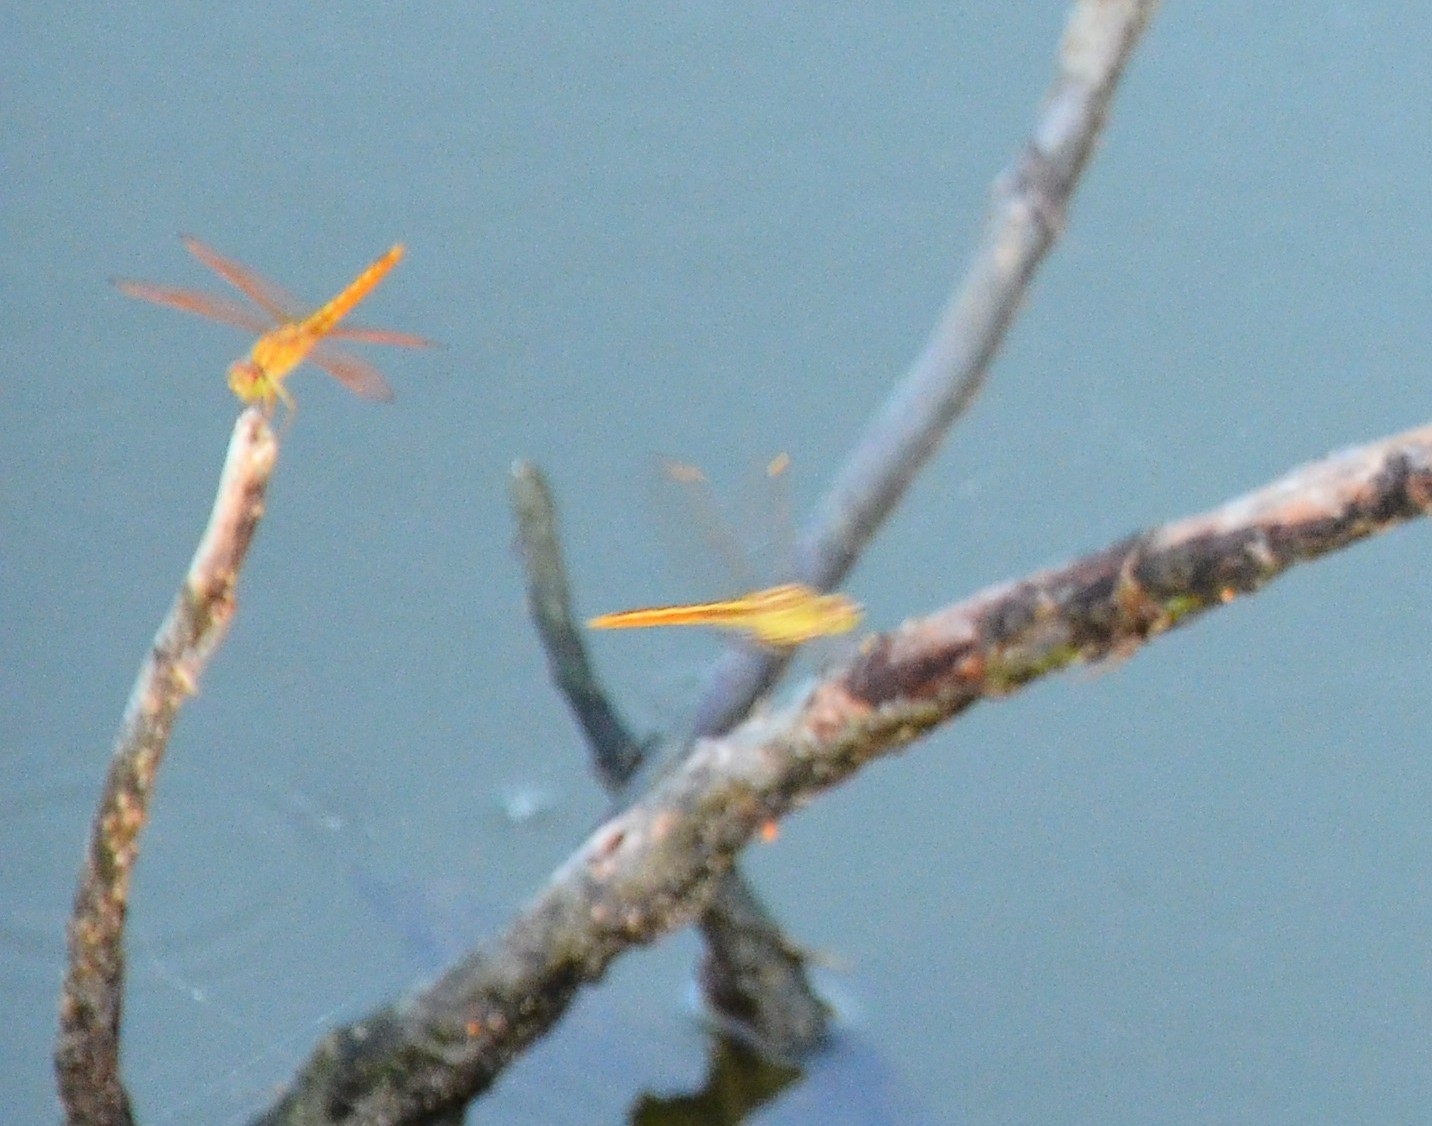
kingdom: Animalia
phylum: Arthropoda
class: Insecta
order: Odonata
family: Libellulidae
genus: Brachythemis
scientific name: Brachythemis contaminata
